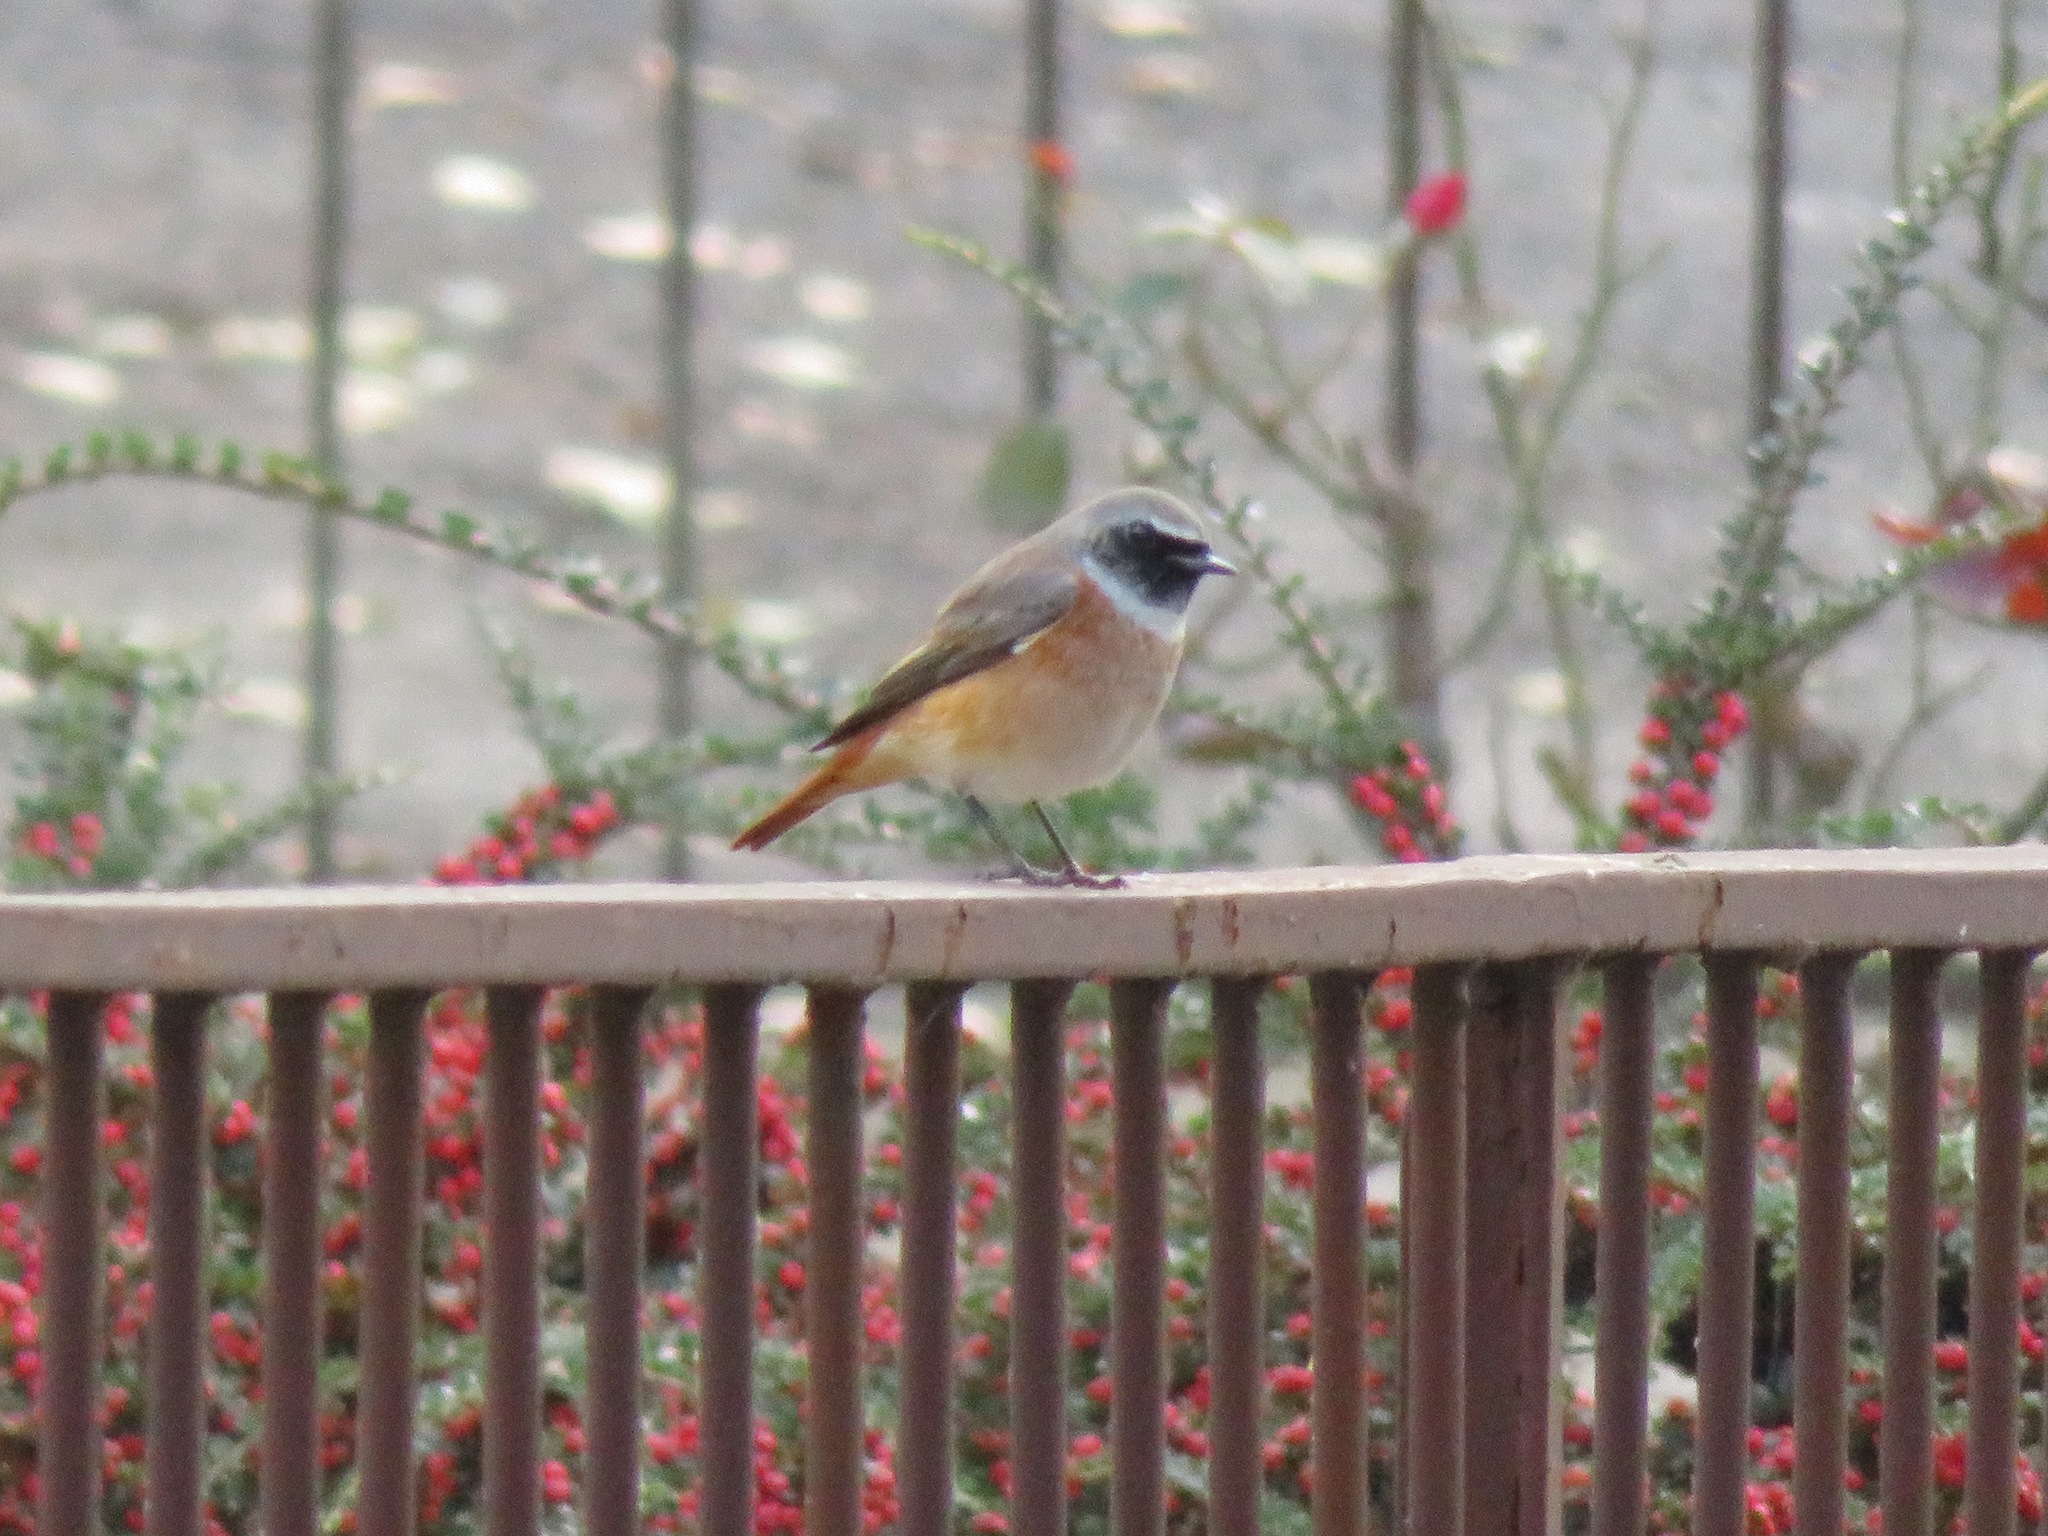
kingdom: Animalia
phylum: Chordata
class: Aves
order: Passeriformes
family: Muscicapidae
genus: Phoenicurus
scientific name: Phoenicurus phoenicurus
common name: Common redstart
